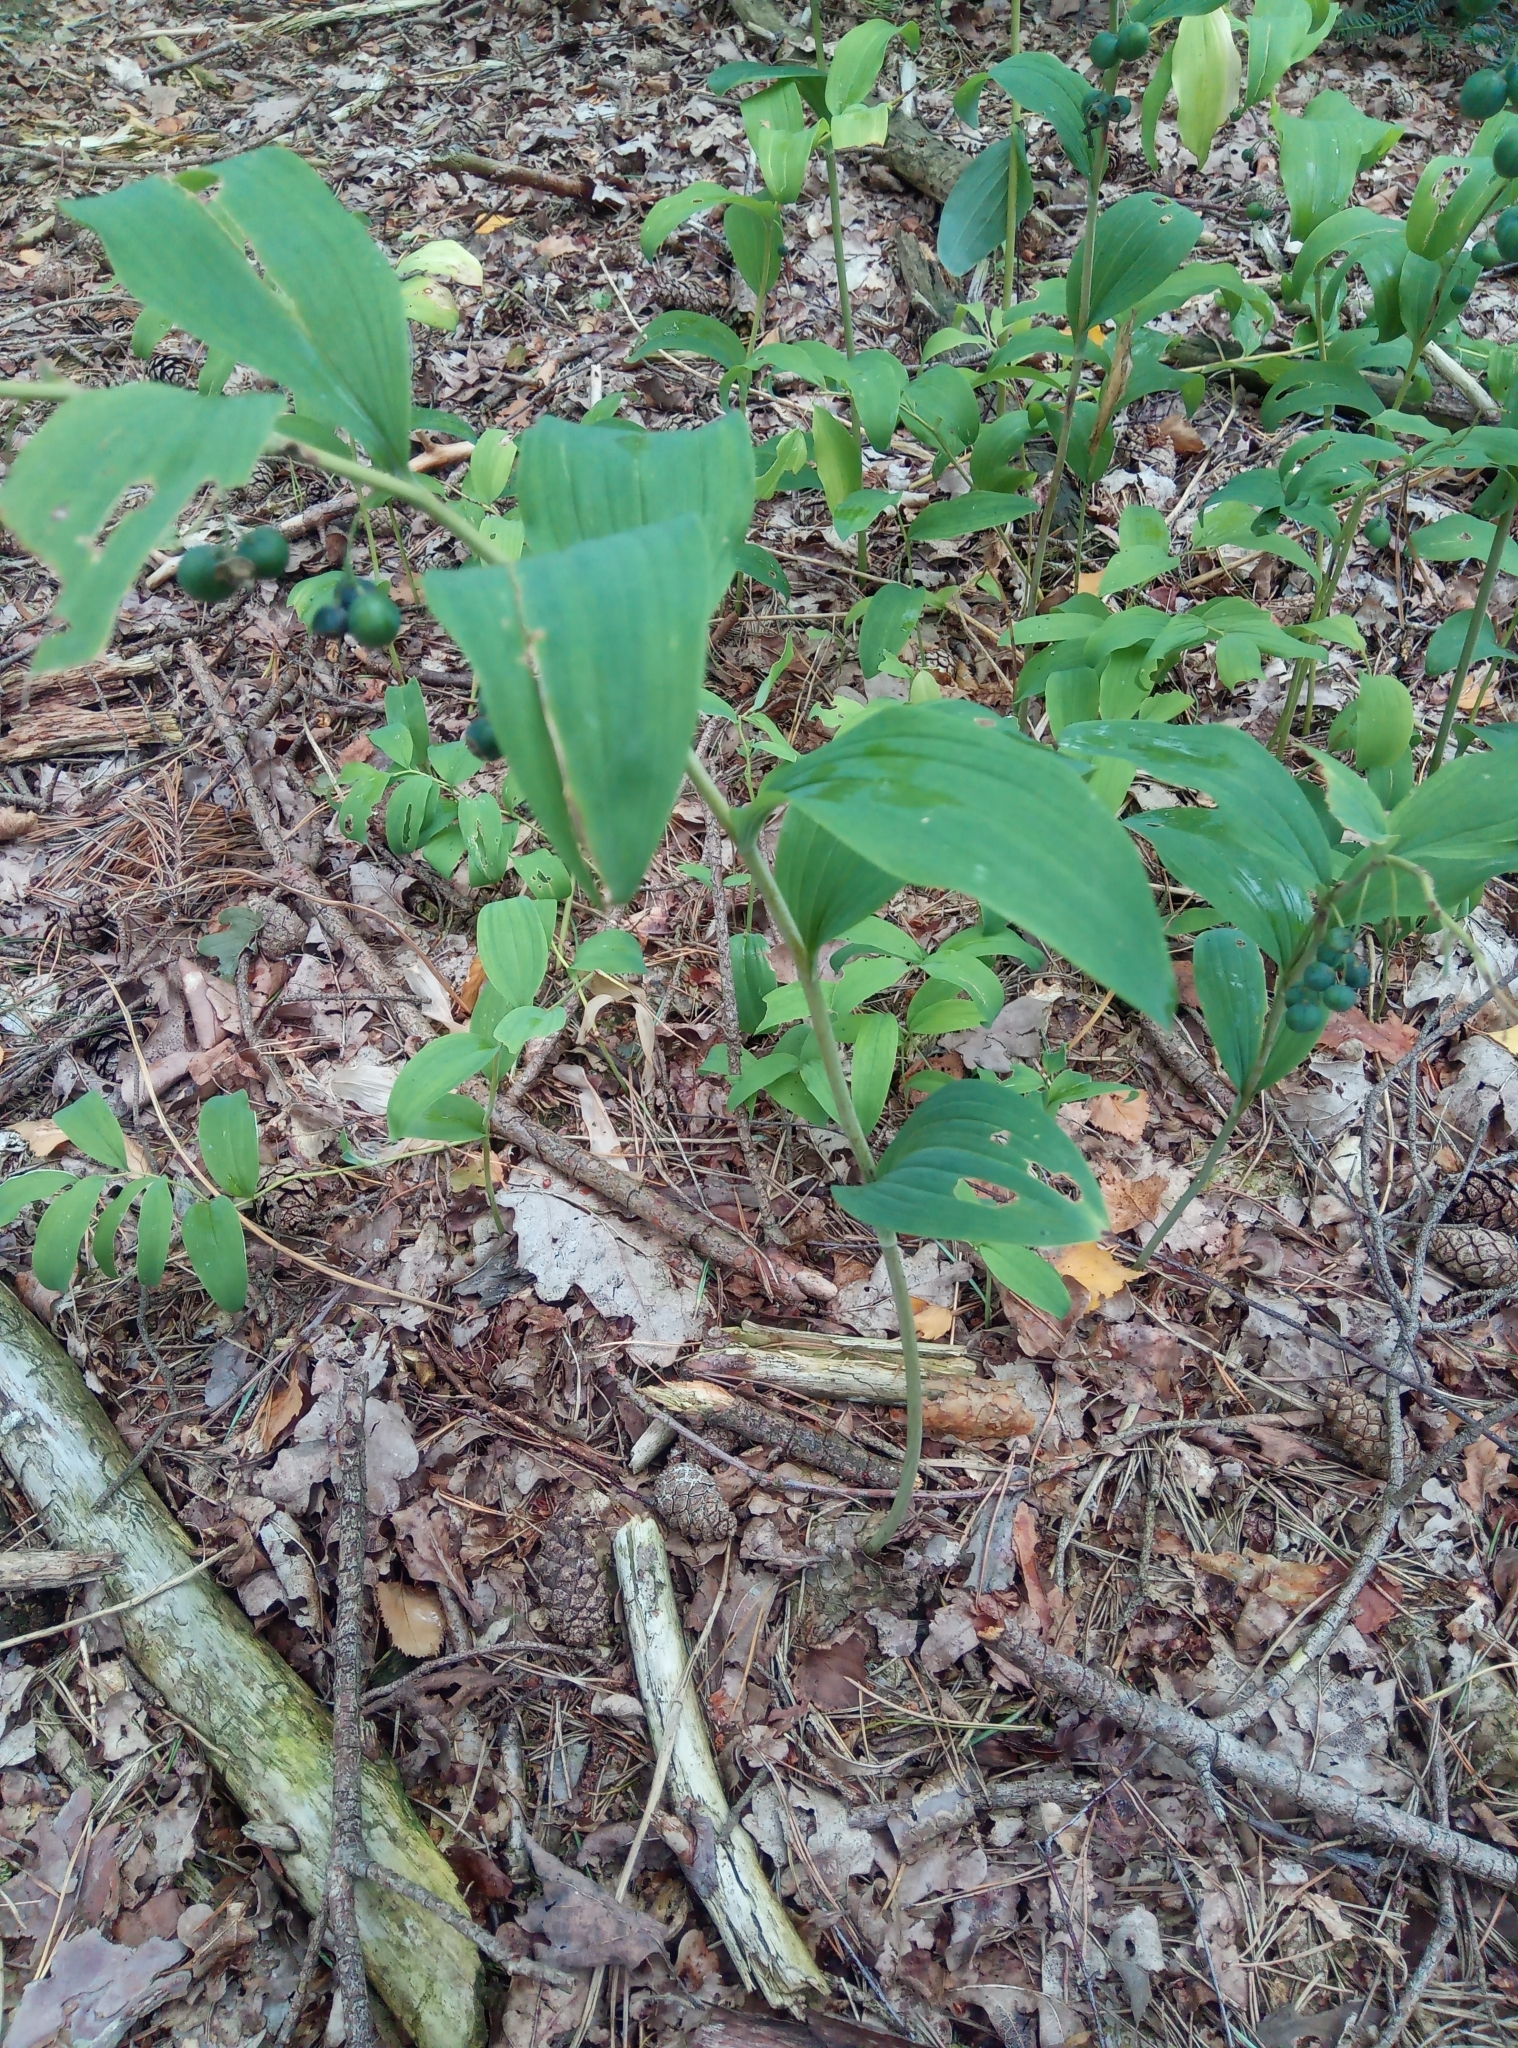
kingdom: Plantae
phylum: Tracheophyta
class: Liliopsida
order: Asparagales
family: Asparagaceae
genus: Polygonatum
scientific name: Polygonatum multiflorum
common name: Solomon's-seal
